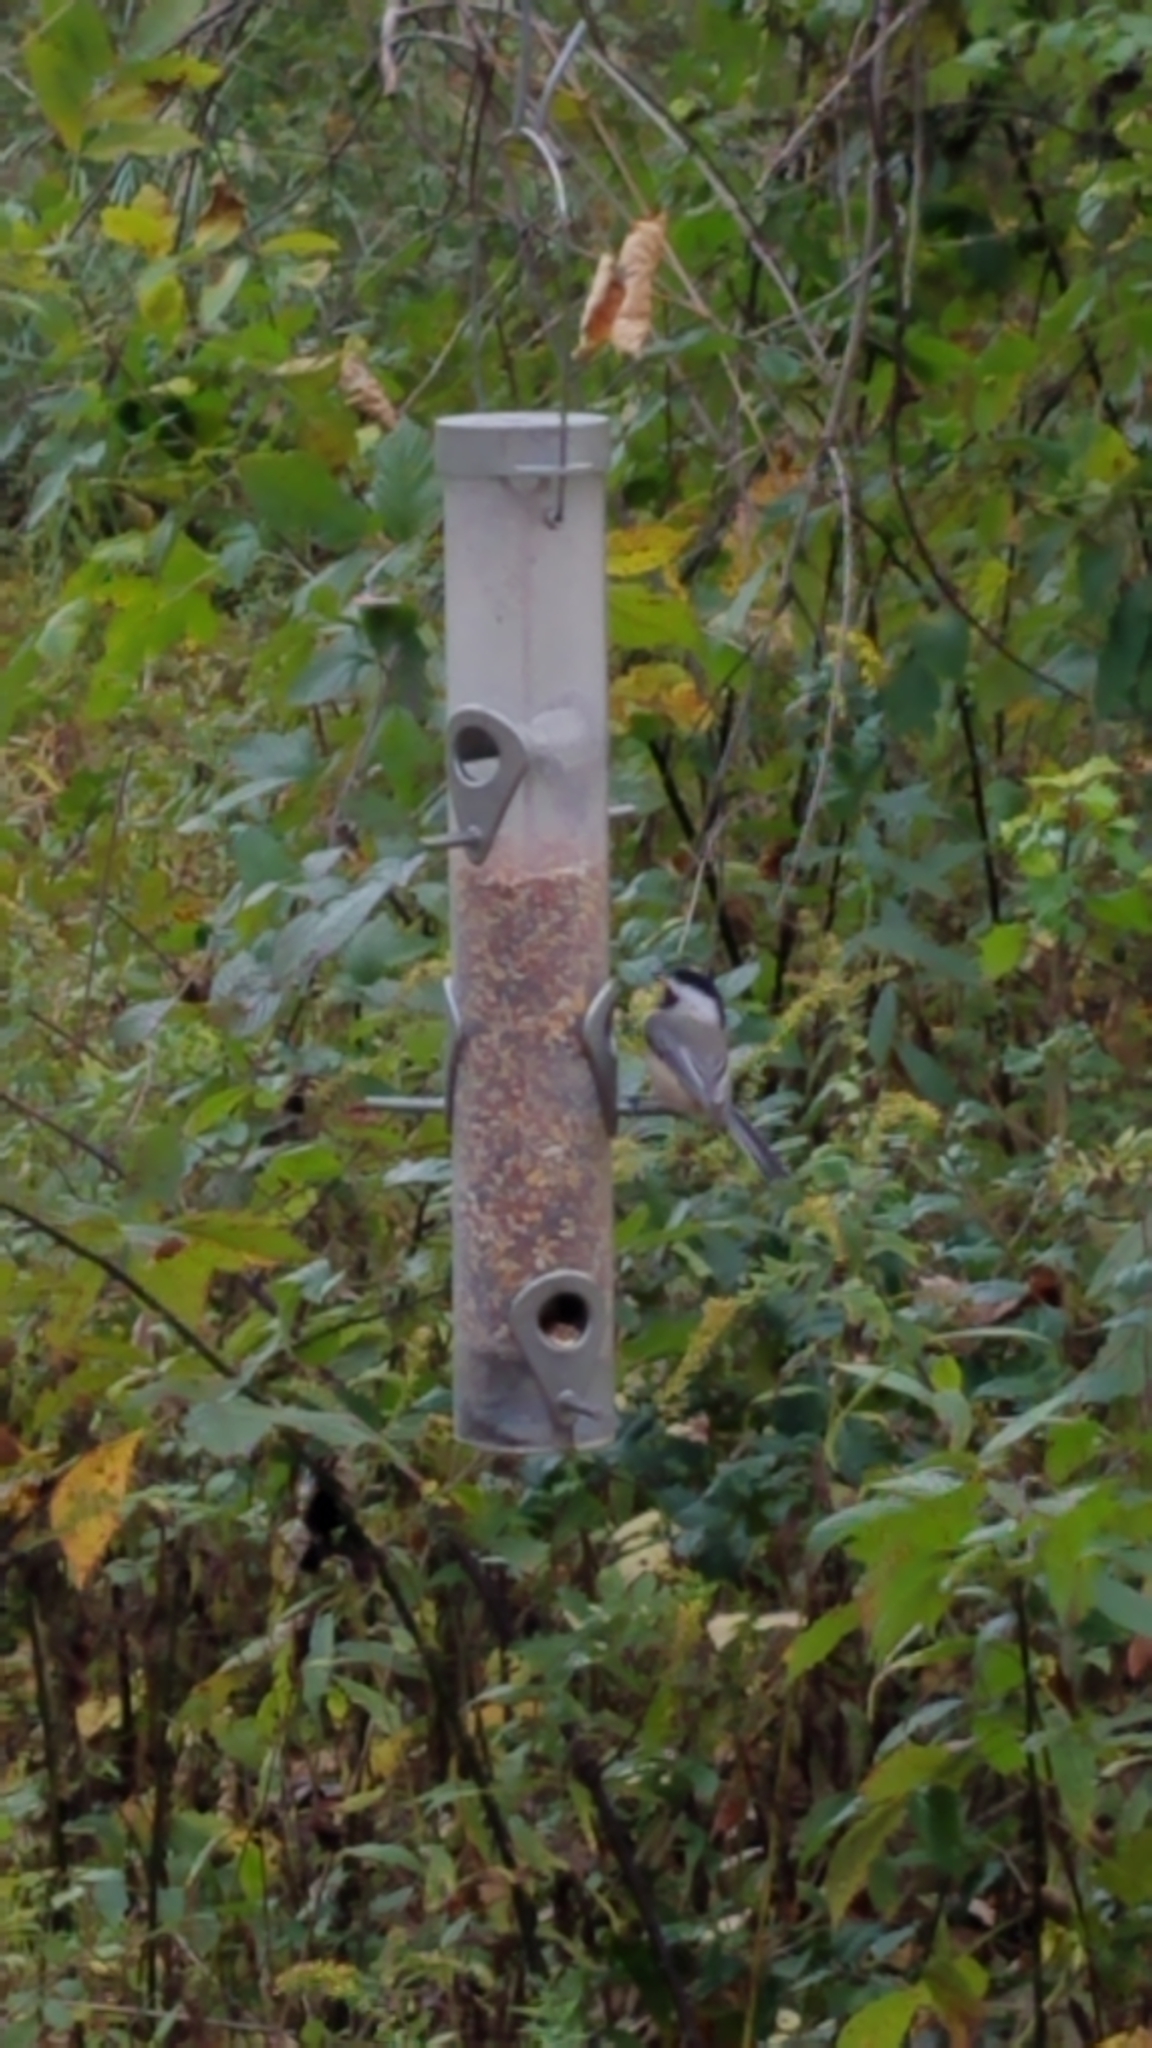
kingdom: Animalia
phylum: Chordata
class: Aves
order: Passeriformes
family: Paridae
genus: Poecile
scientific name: Poecile carolinensis
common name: Carolina chickadee
